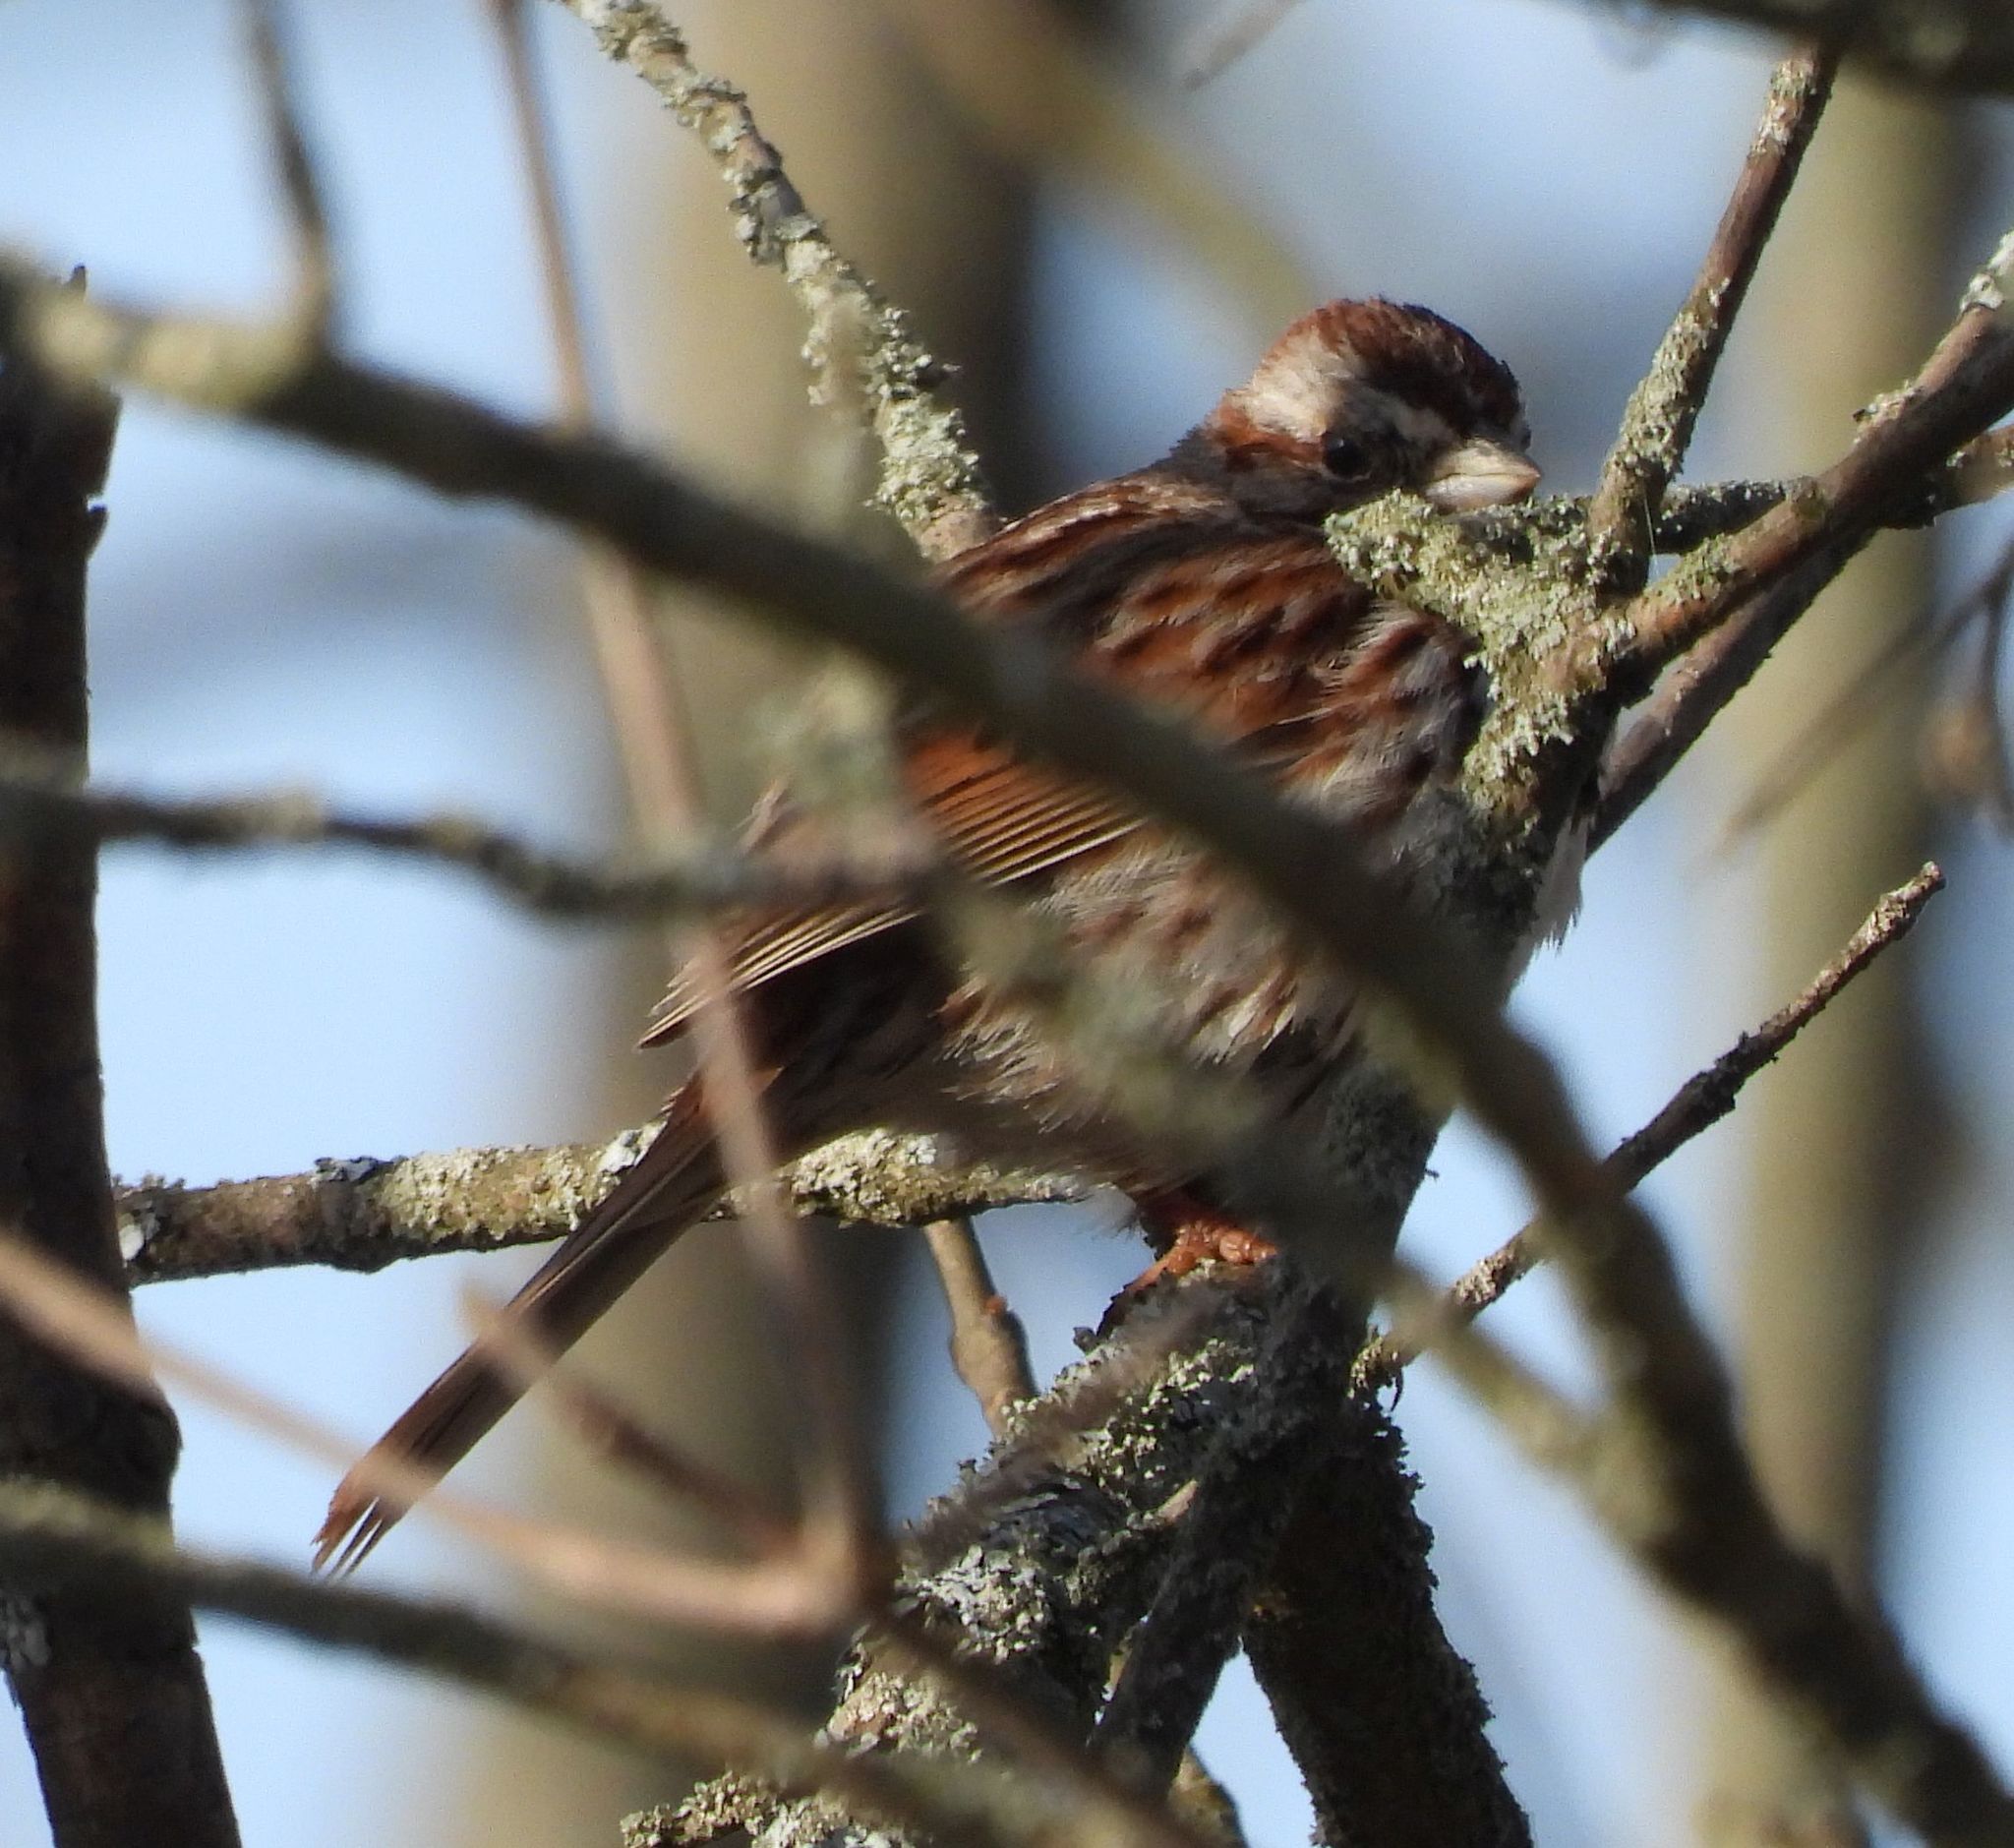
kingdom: Animalia
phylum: Chordata
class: Aves
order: Passeriformes
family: Passerellidae
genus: Melospiza
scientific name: Melospiza melodia
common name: Song sparrow
